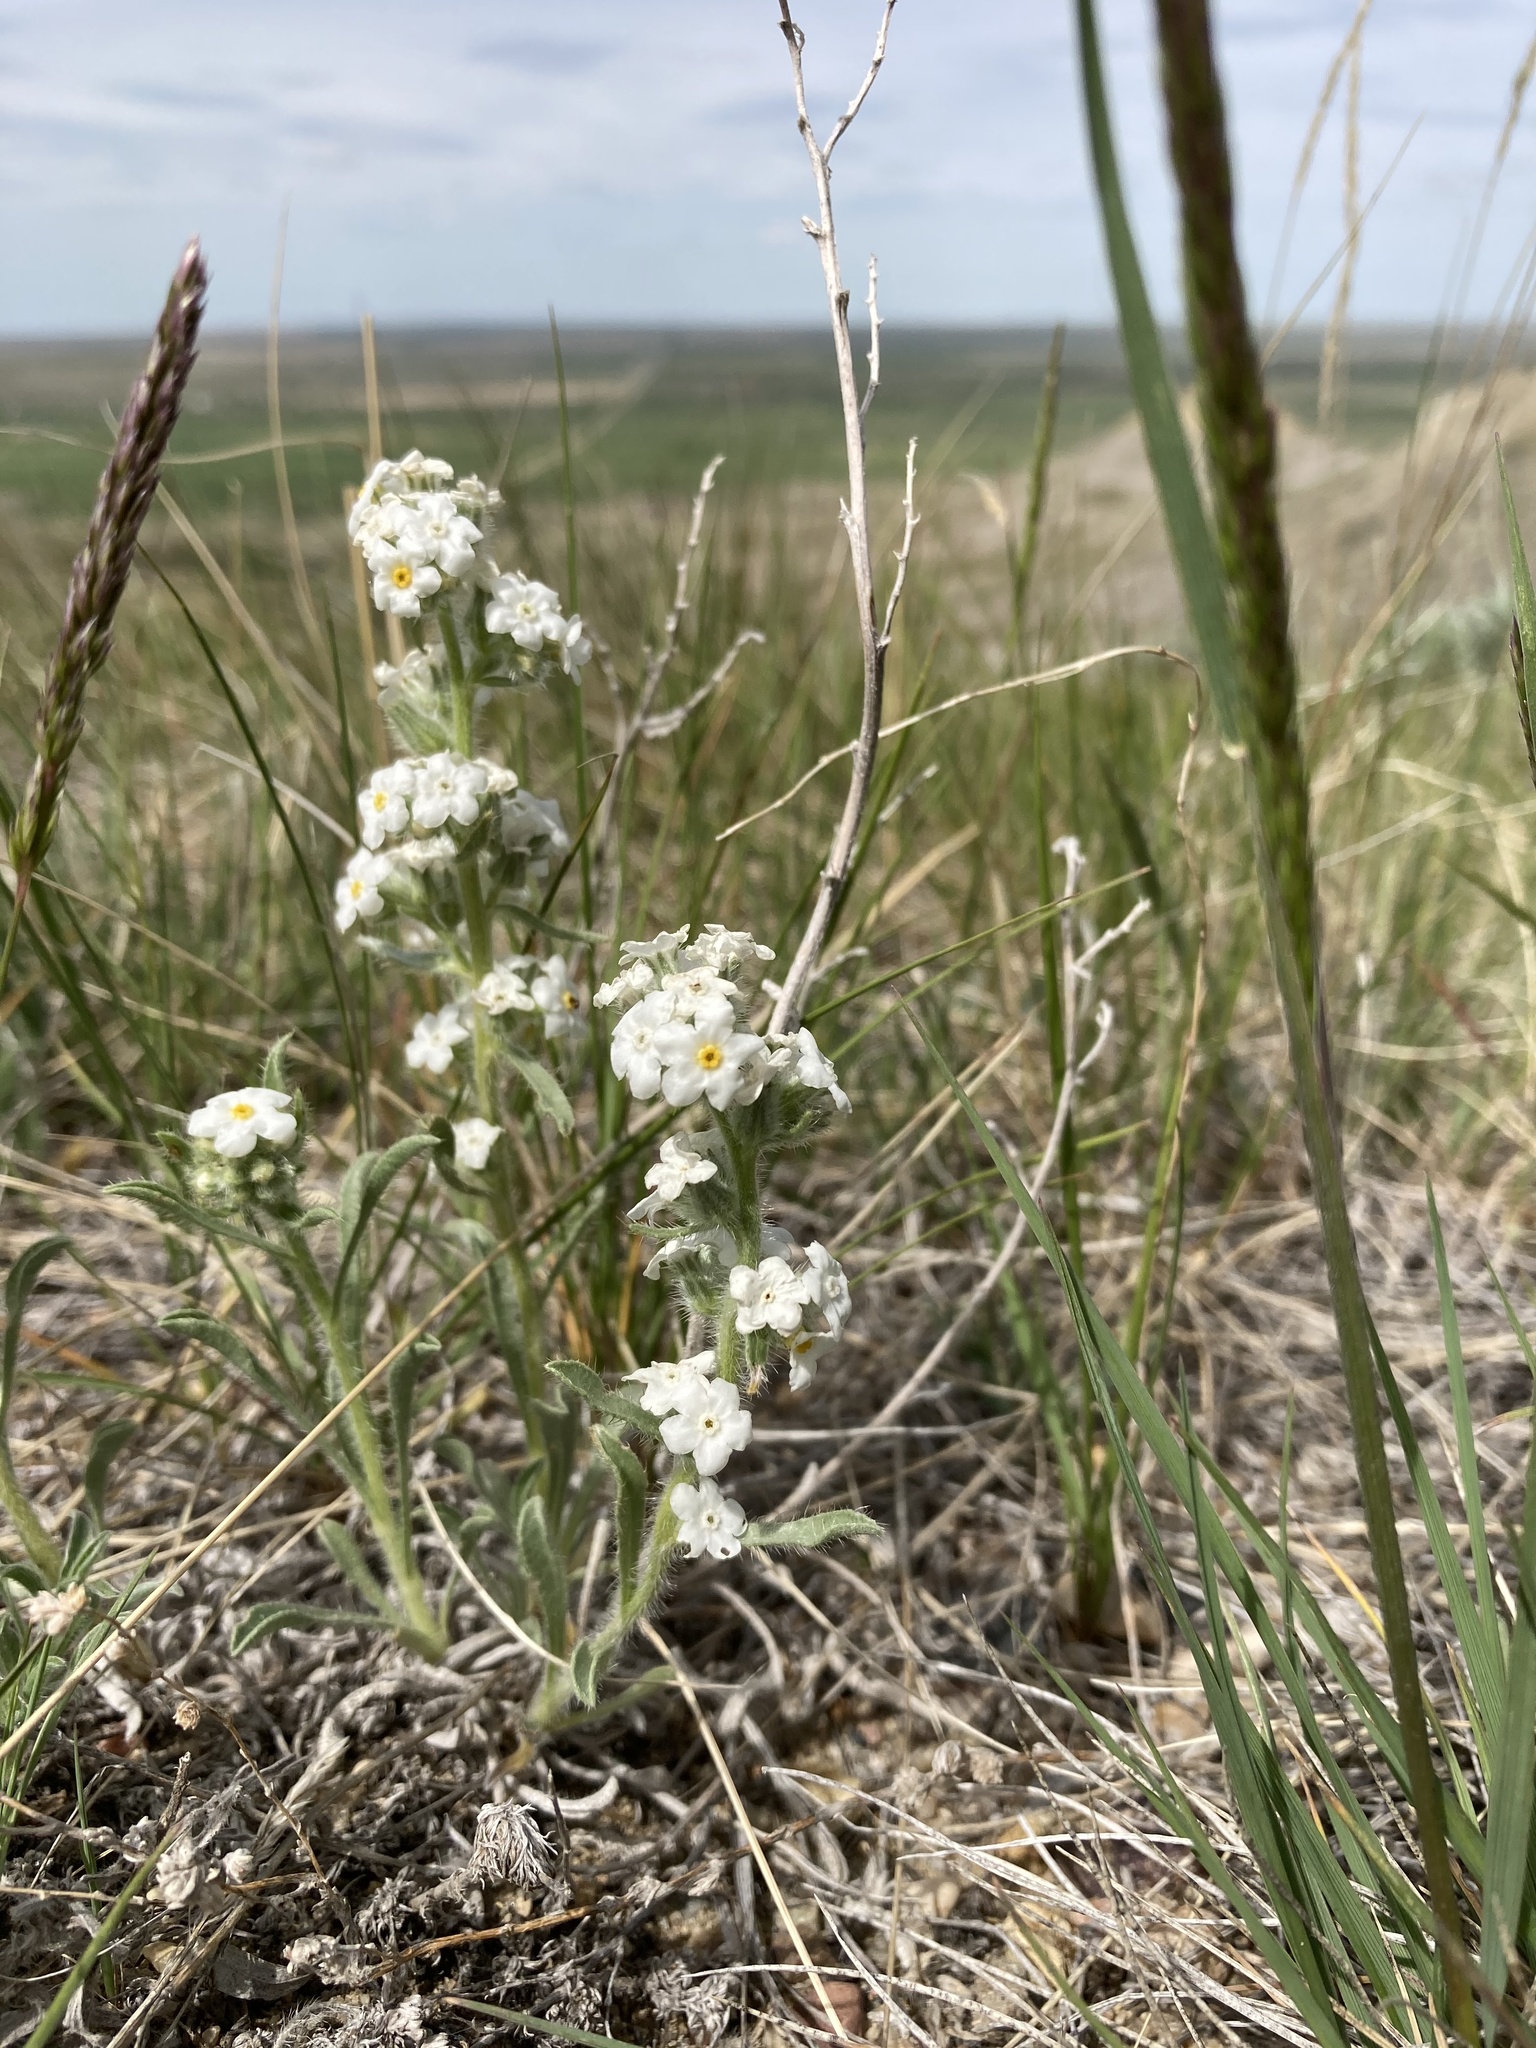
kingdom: Plantae
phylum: Tracheophyta
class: Magnoliopsida
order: Boraginales
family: Boraginaceae
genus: Oreocarya
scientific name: Oreocarya glomerata
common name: Macoun's cryptantha
